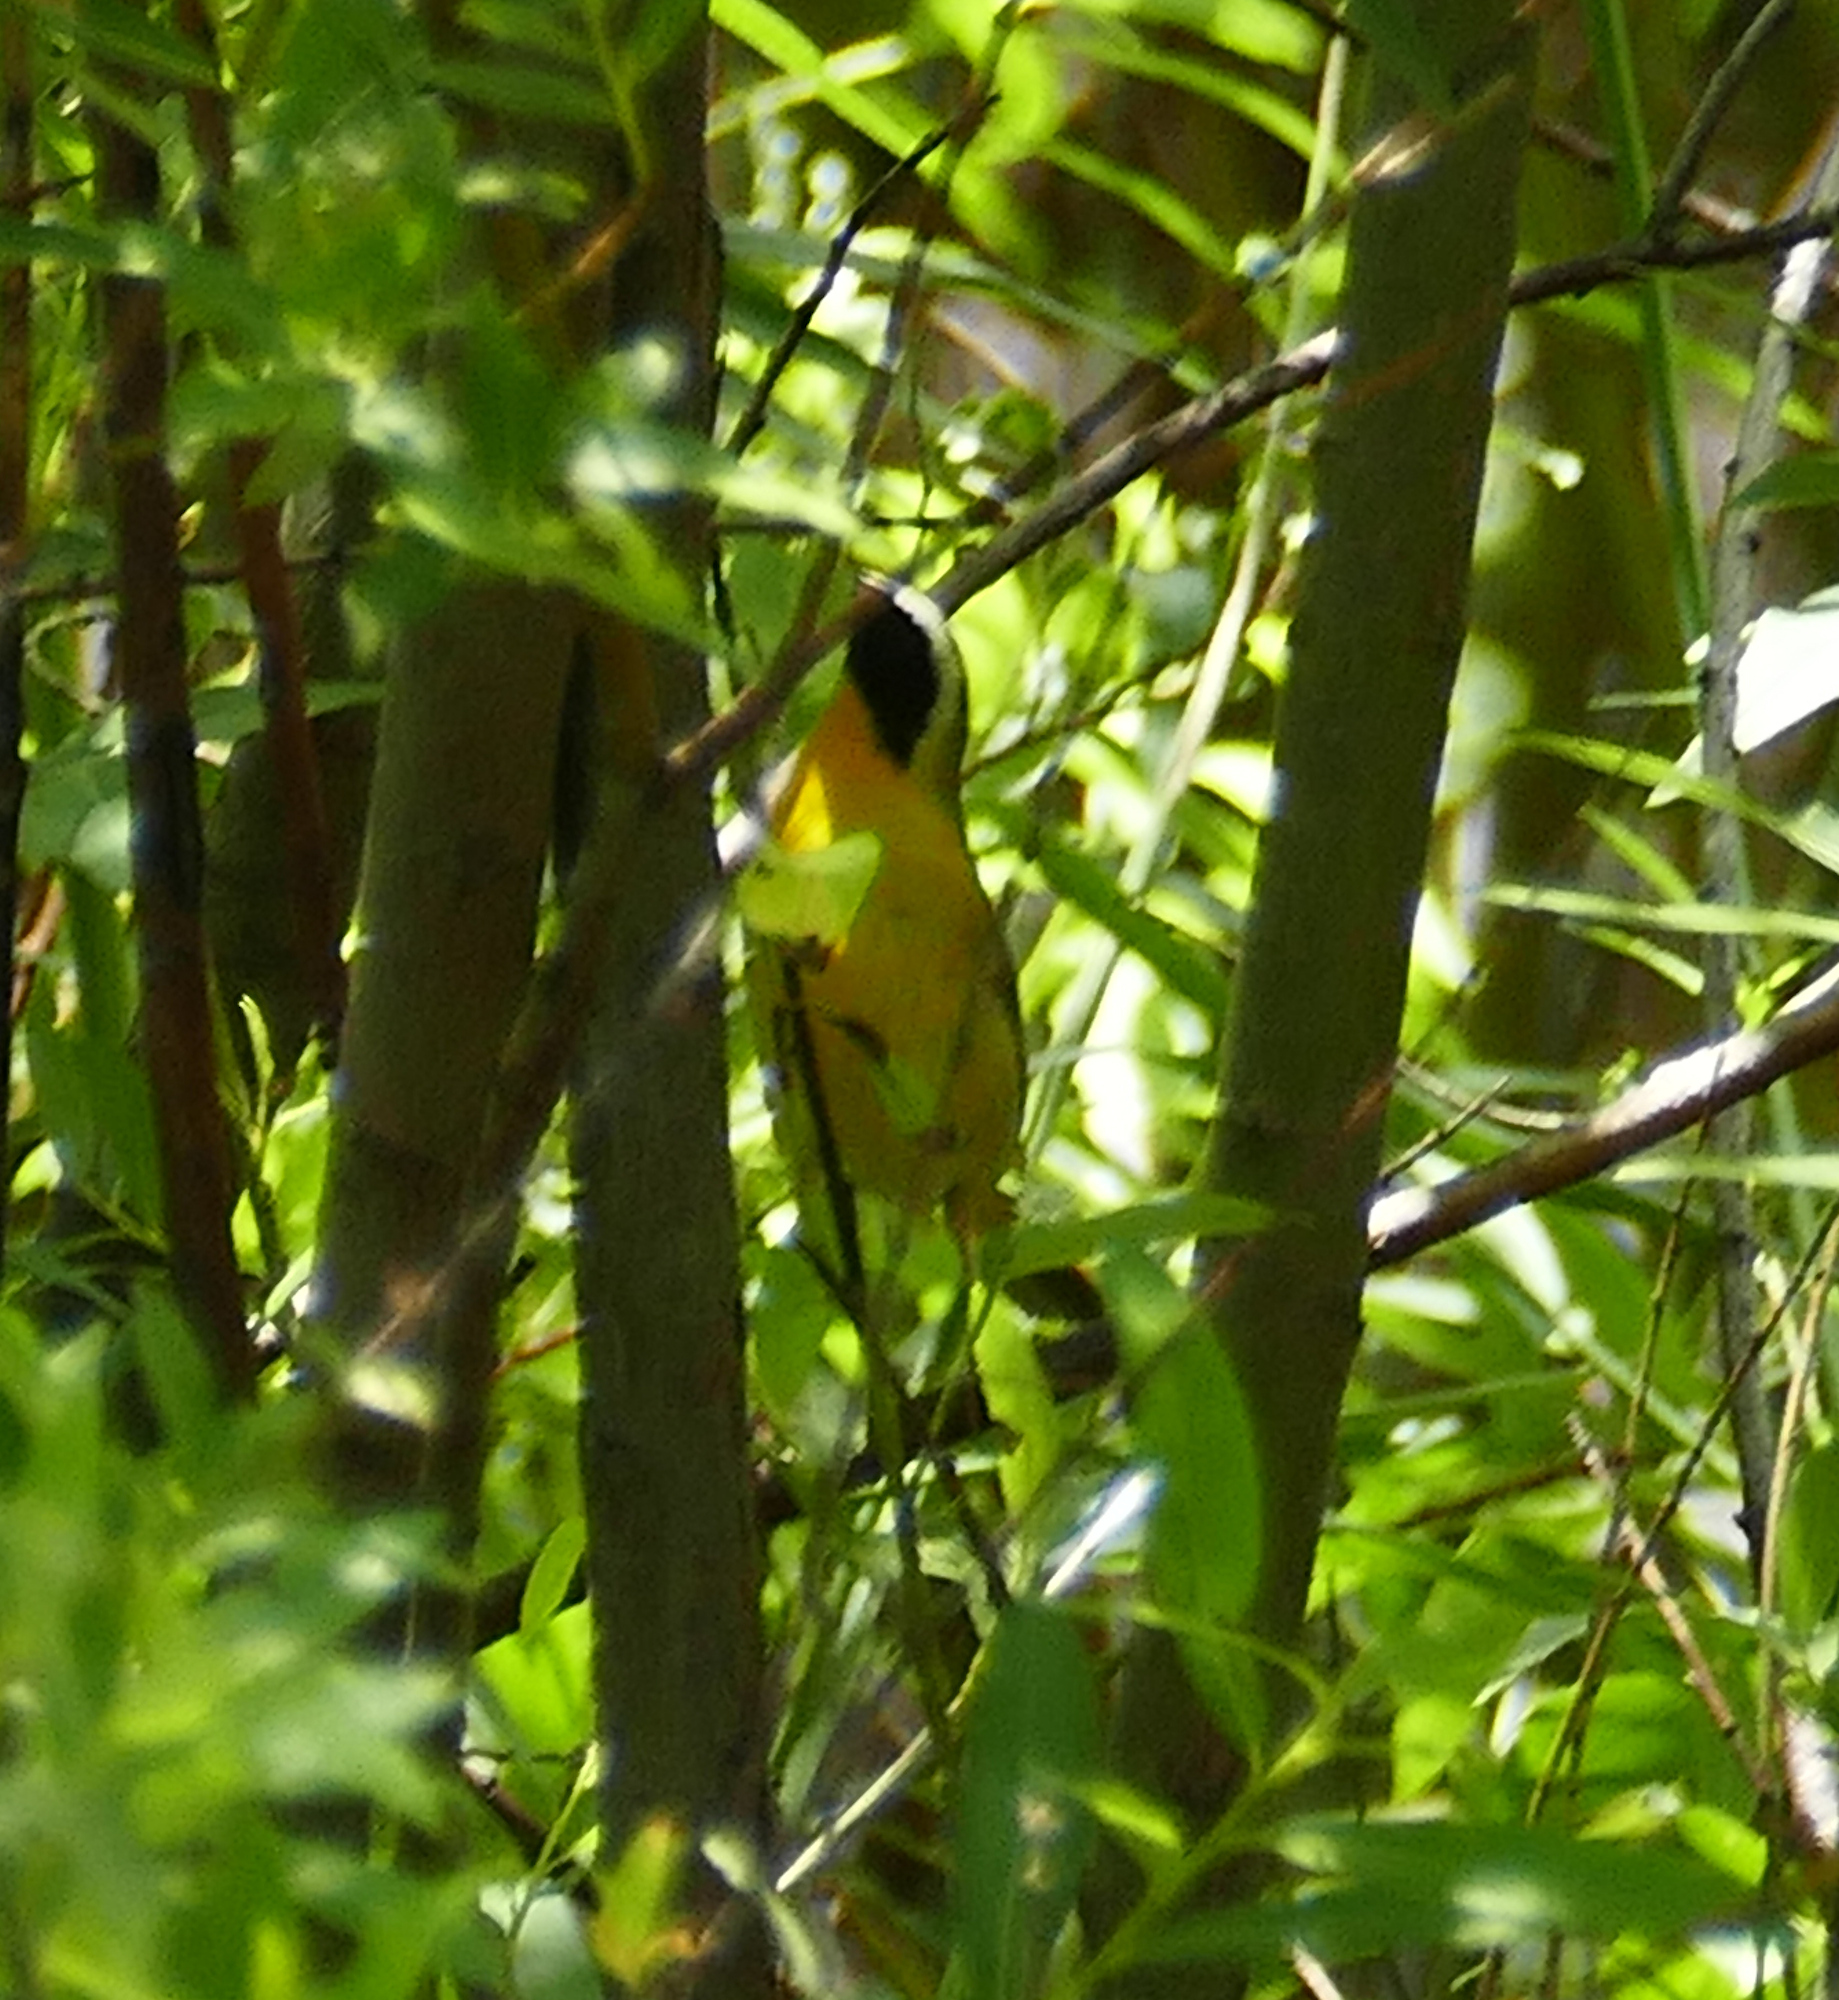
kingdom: Animalia
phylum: Chordata
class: Aves
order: Passeriformes
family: Parulidae
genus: Geothlypis
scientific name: Geothlypis trichas
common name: Common yellowthroat
